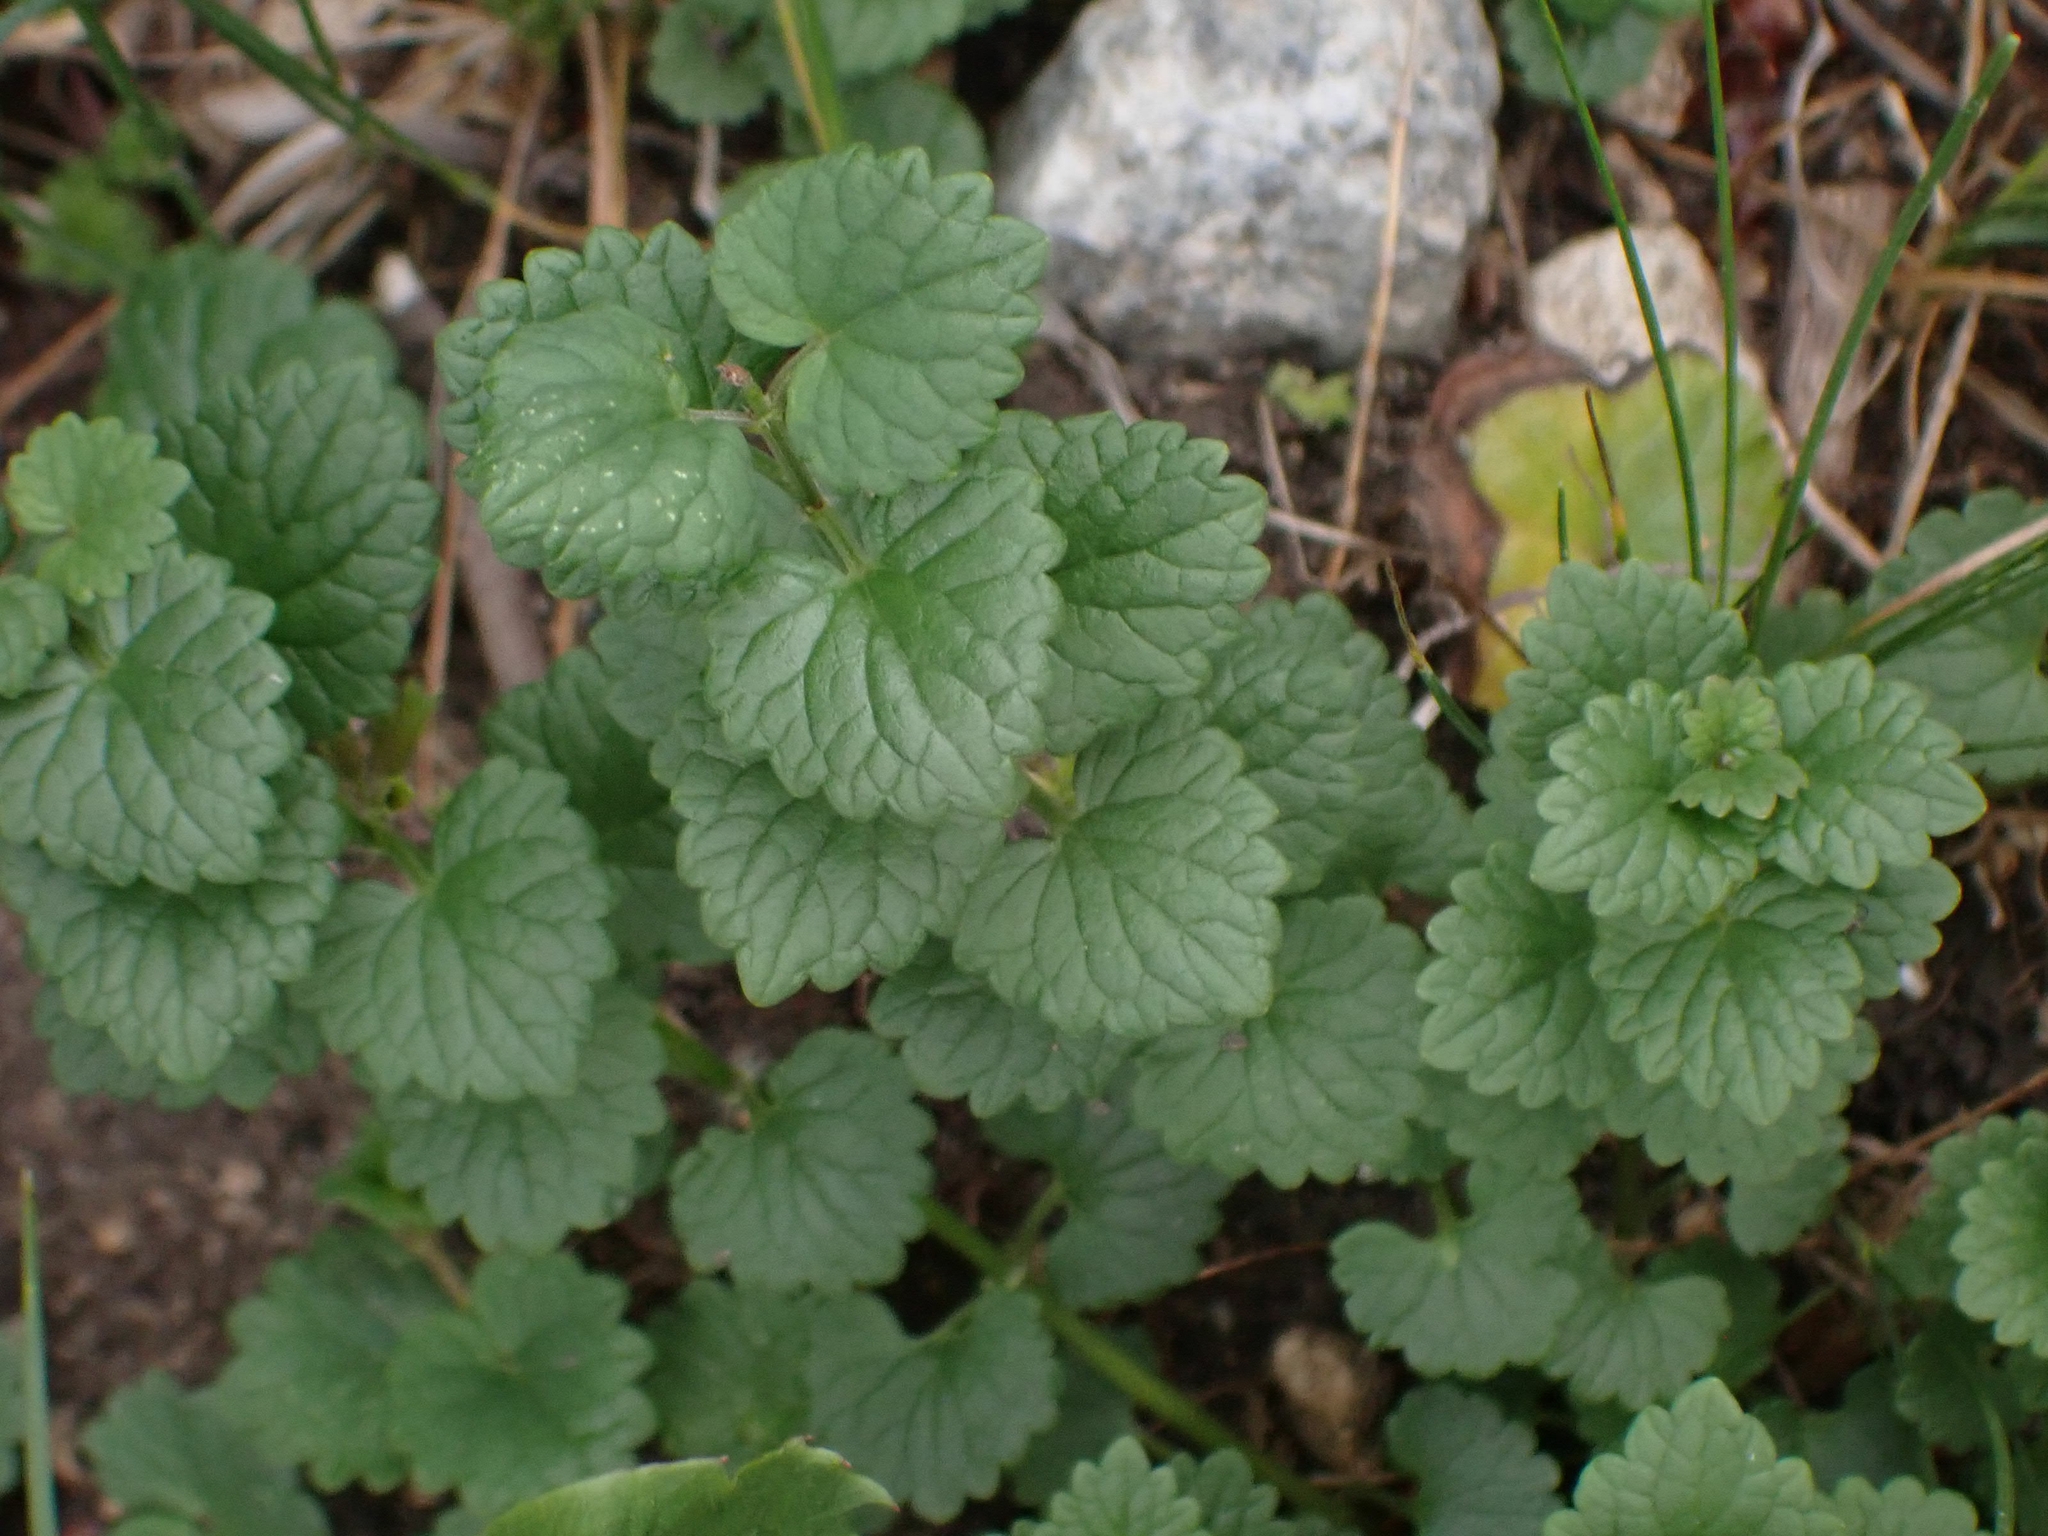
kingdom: Plantae
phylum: Tracheophyta
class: Magnoliopsida
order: Lamiales
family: Lamiaceae
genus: Glechoma
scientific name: Glechoma hederacea
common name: Ground ivy
